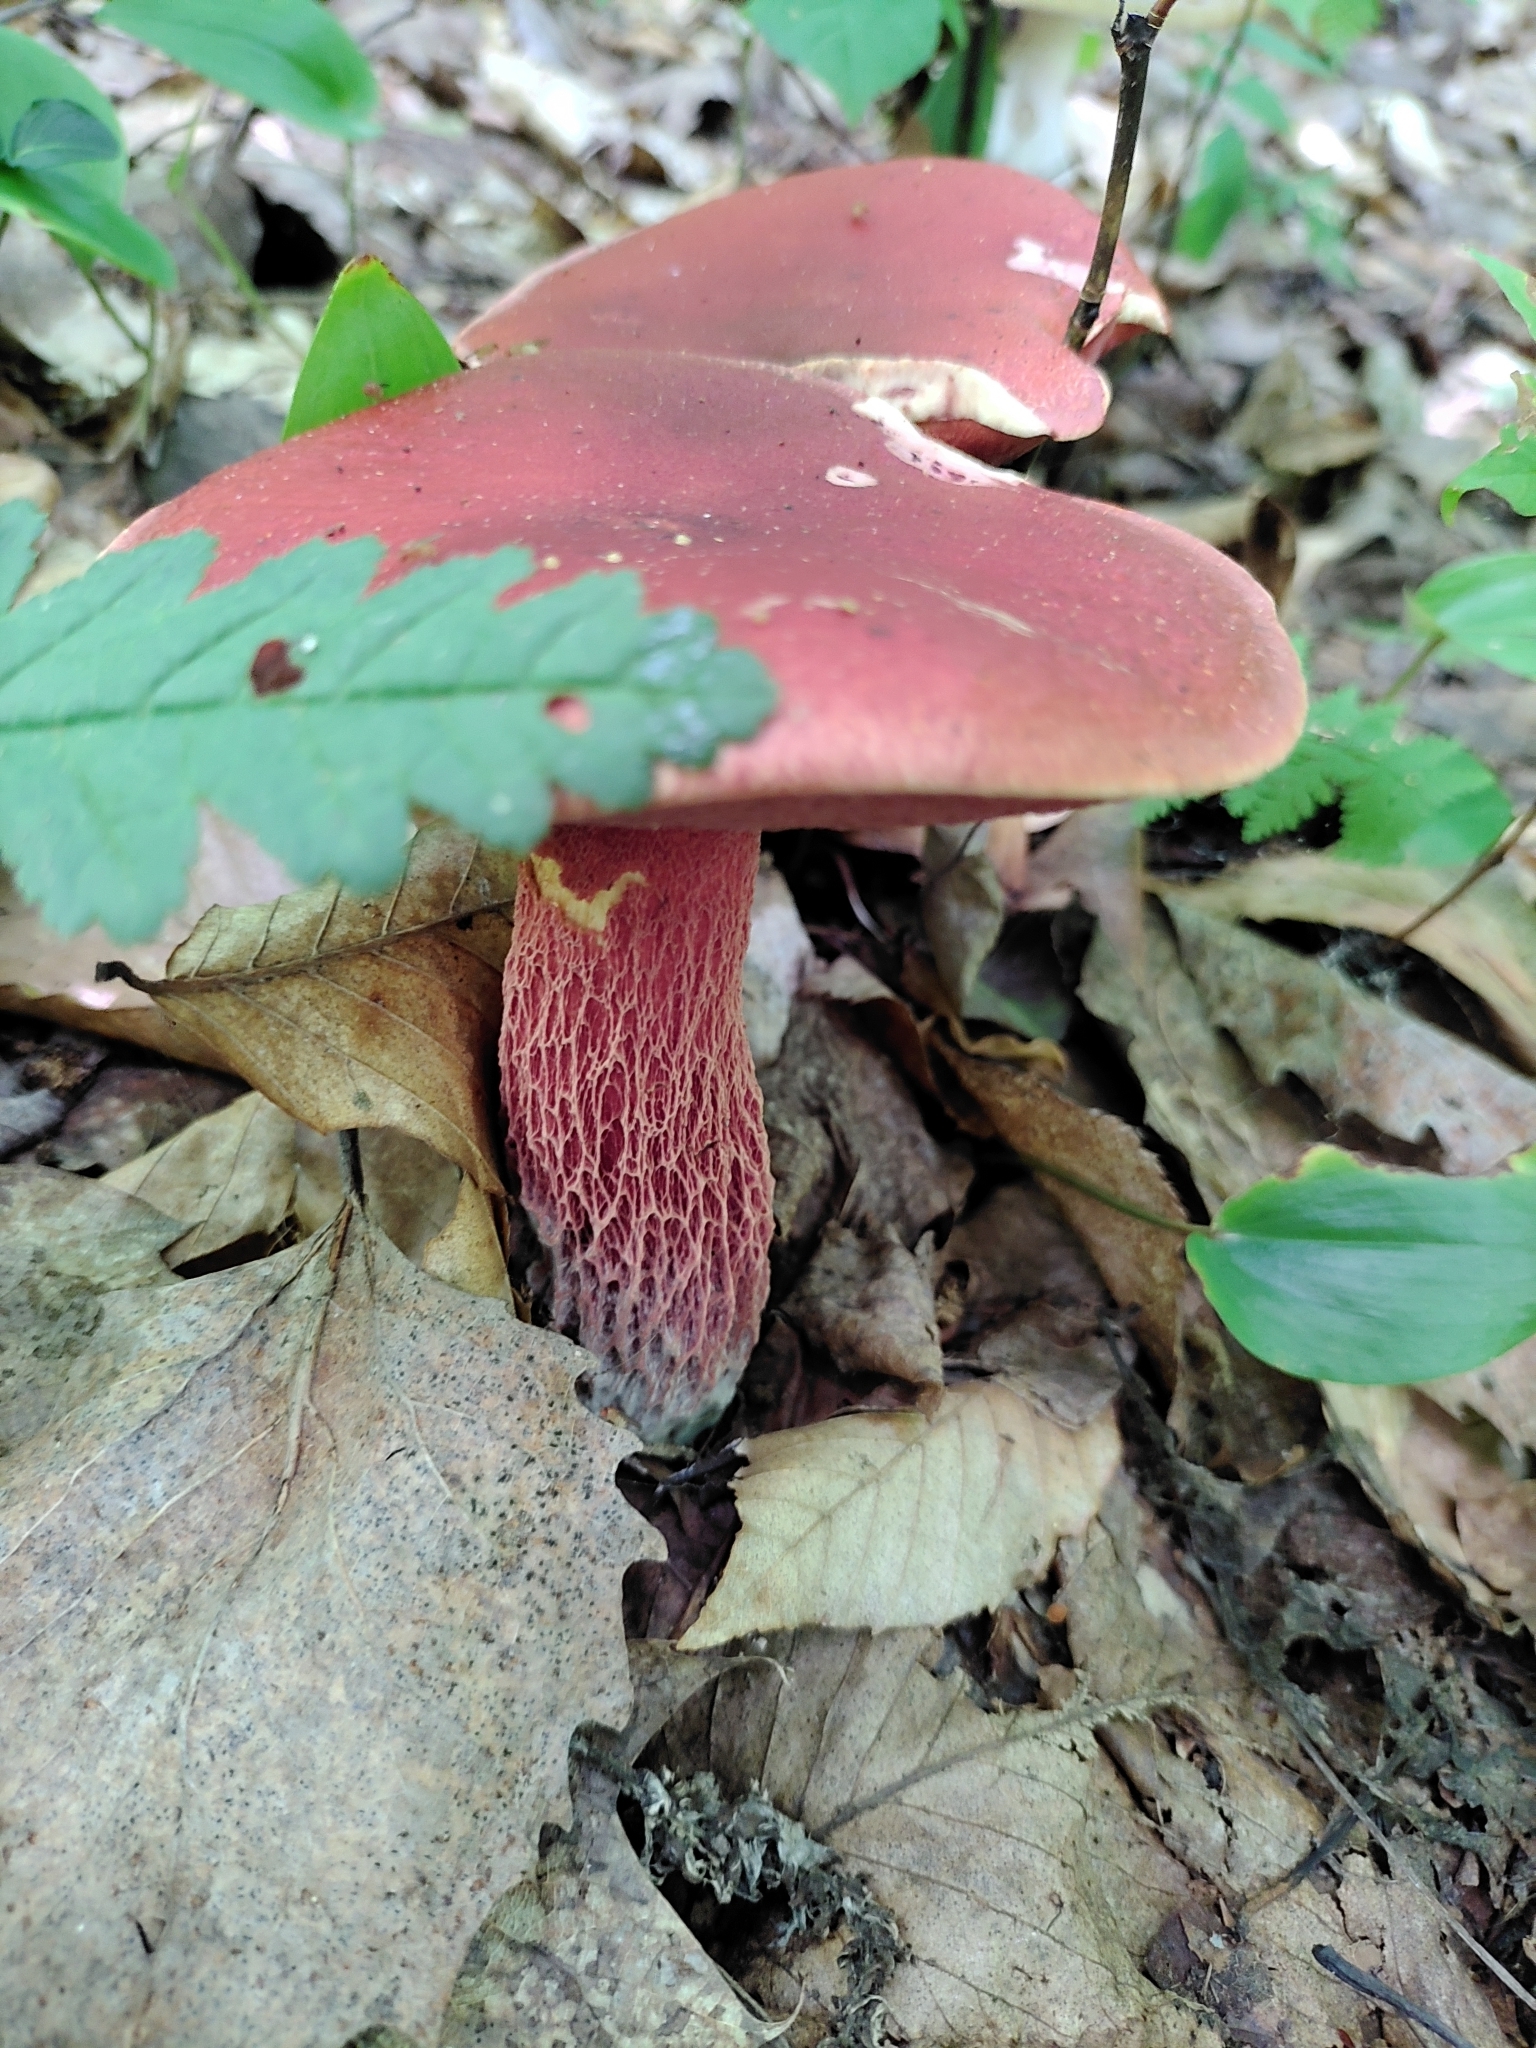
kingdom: Fungi
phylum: Basidiomycota
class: Agaricomycetes
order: Boletales
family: Boletaceae
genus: Butyriboletus
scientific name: Butyriboletus frostii
